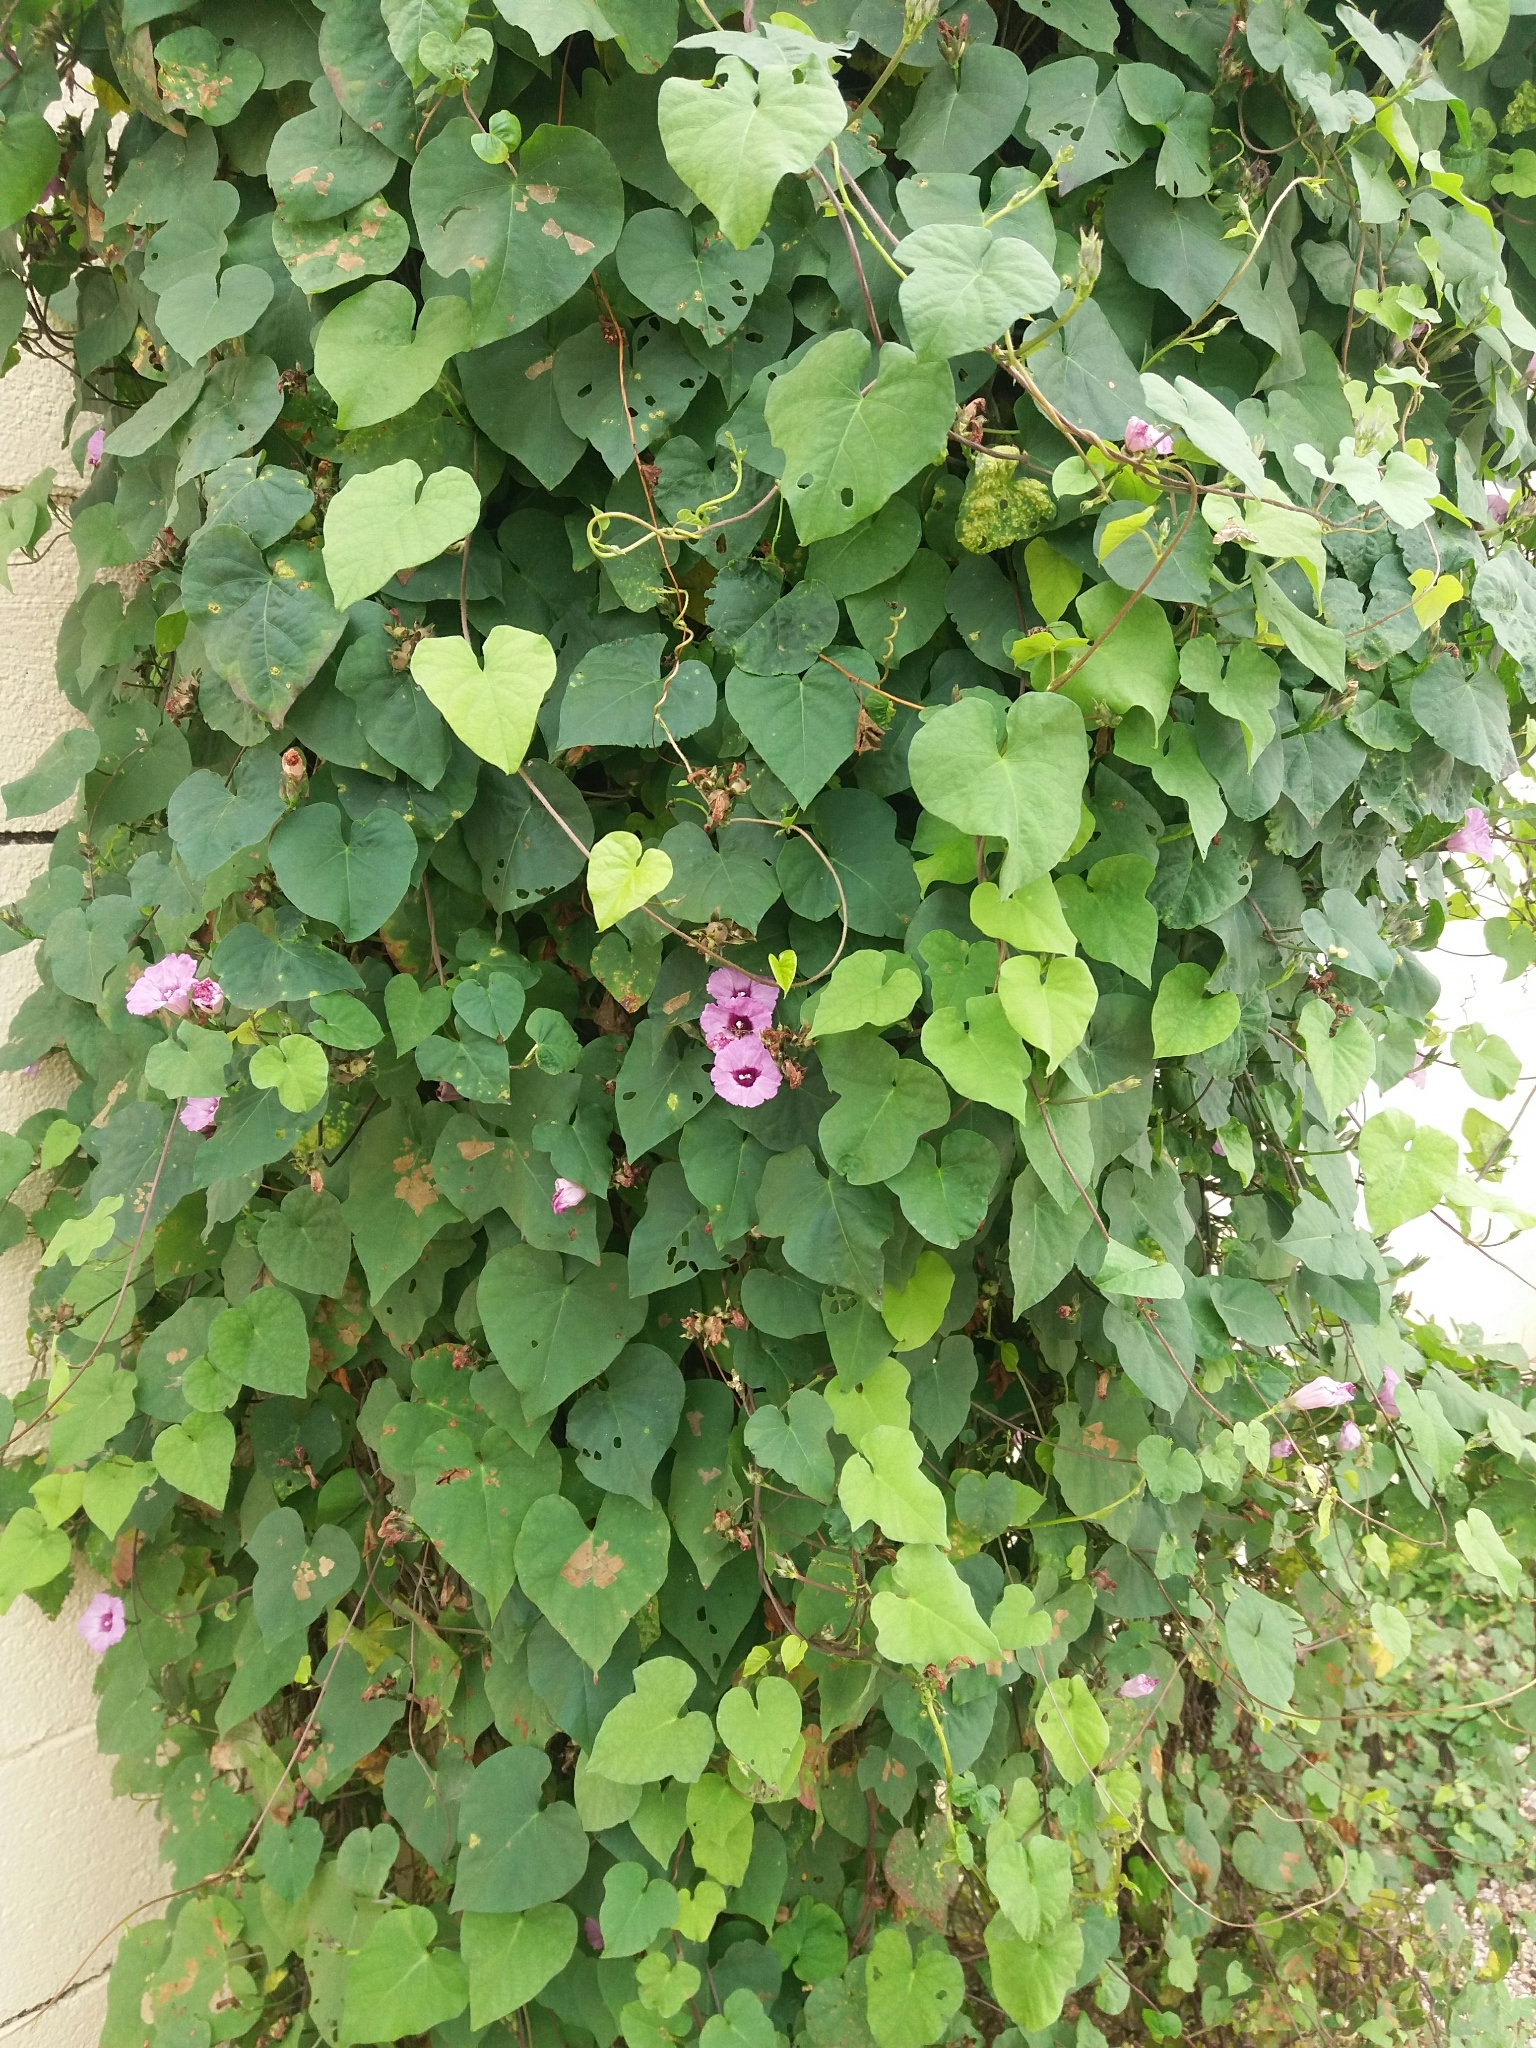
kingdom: Plantae
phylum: Tracheophyta
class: Magnoliopsida
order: Solanales
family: Convolvulaceae
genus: Ipomoea
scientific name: Ipomoea cordatotriloba
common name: Cotton morning glory
